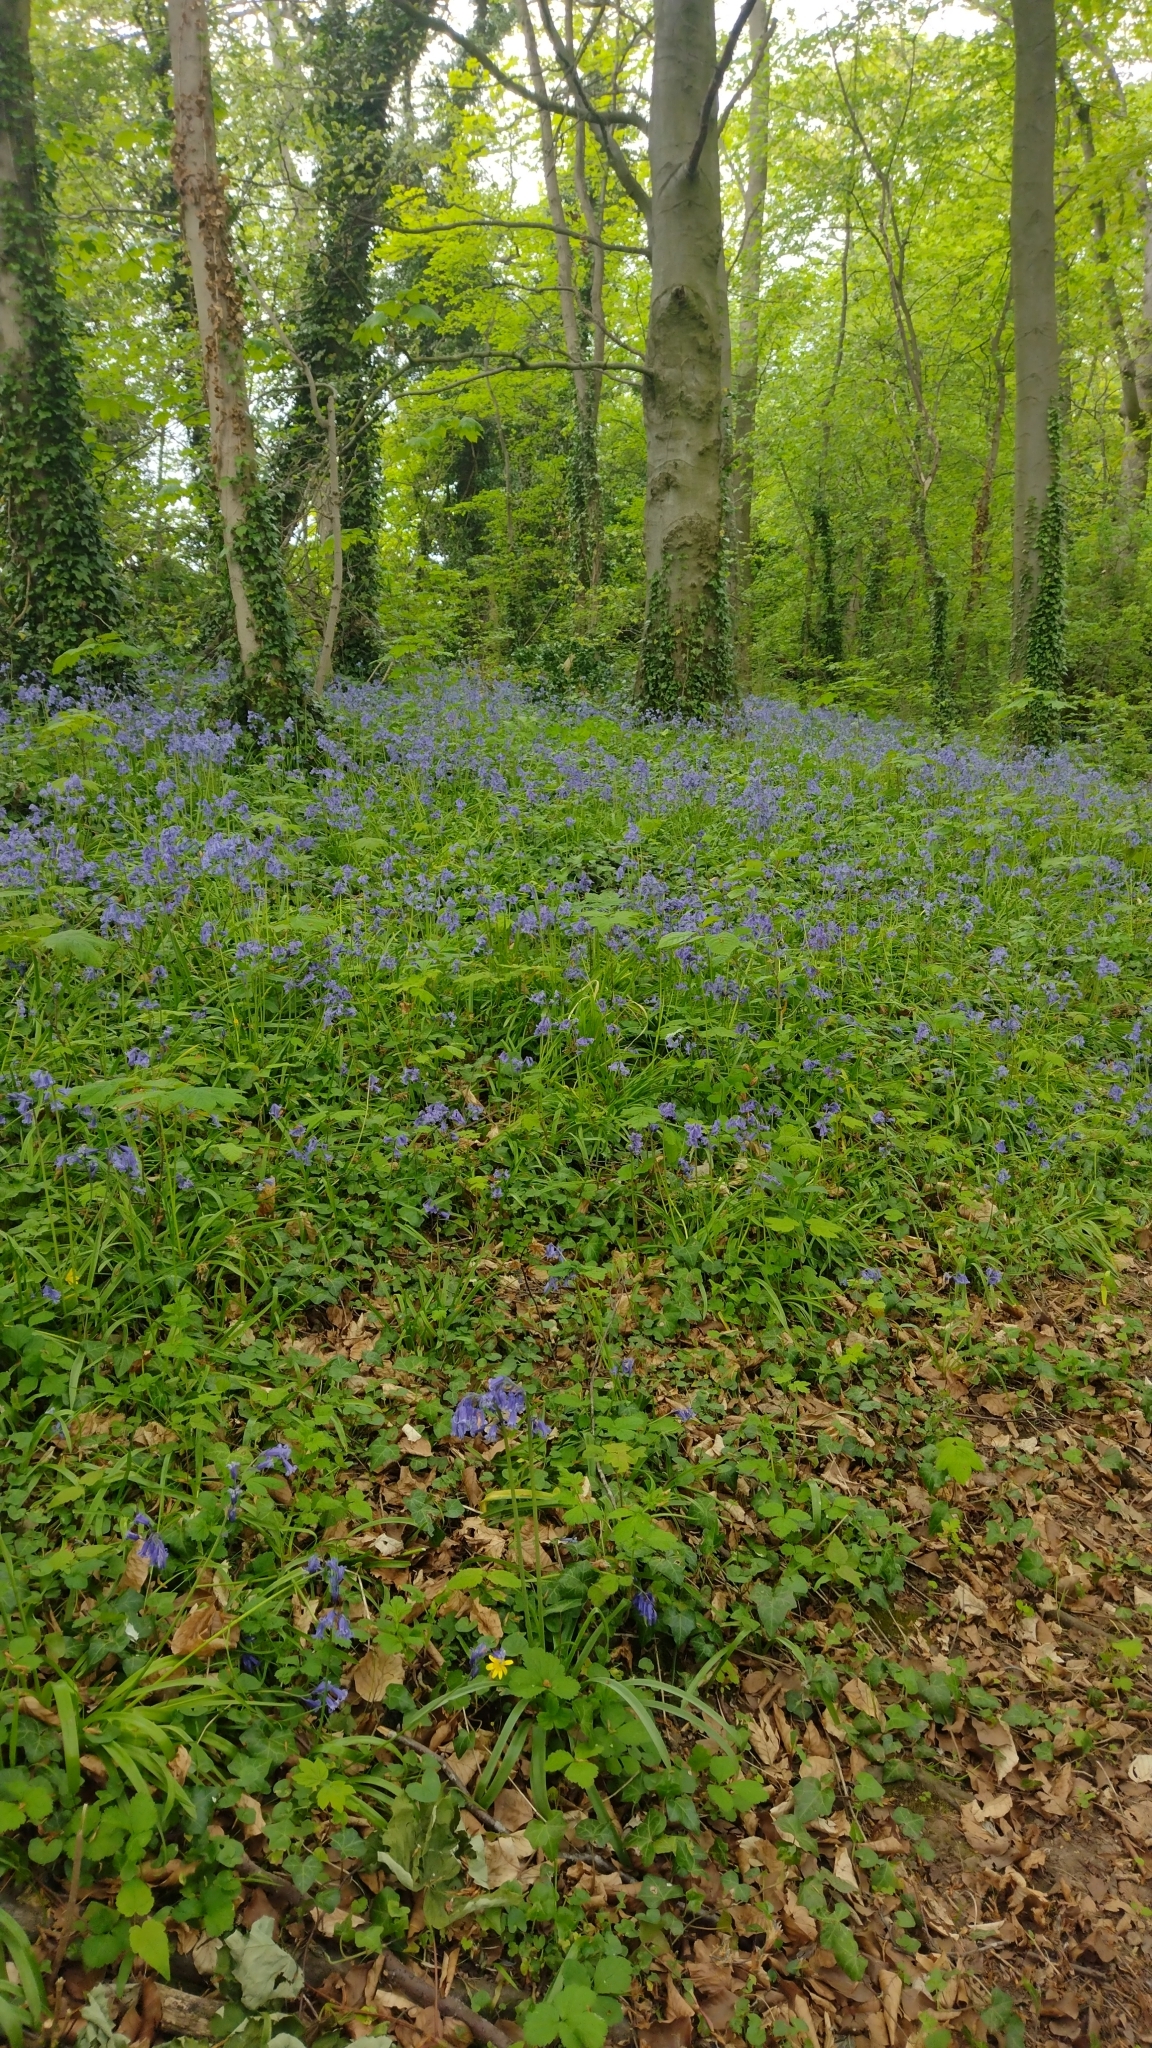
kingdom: Plantae
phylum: Tracheophyta
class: Liliopsida
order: Asparagales
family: Asparagaceae
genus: Hyacinthoides
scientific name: Hyacinthoides massartiana
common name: Hyacinthoides
